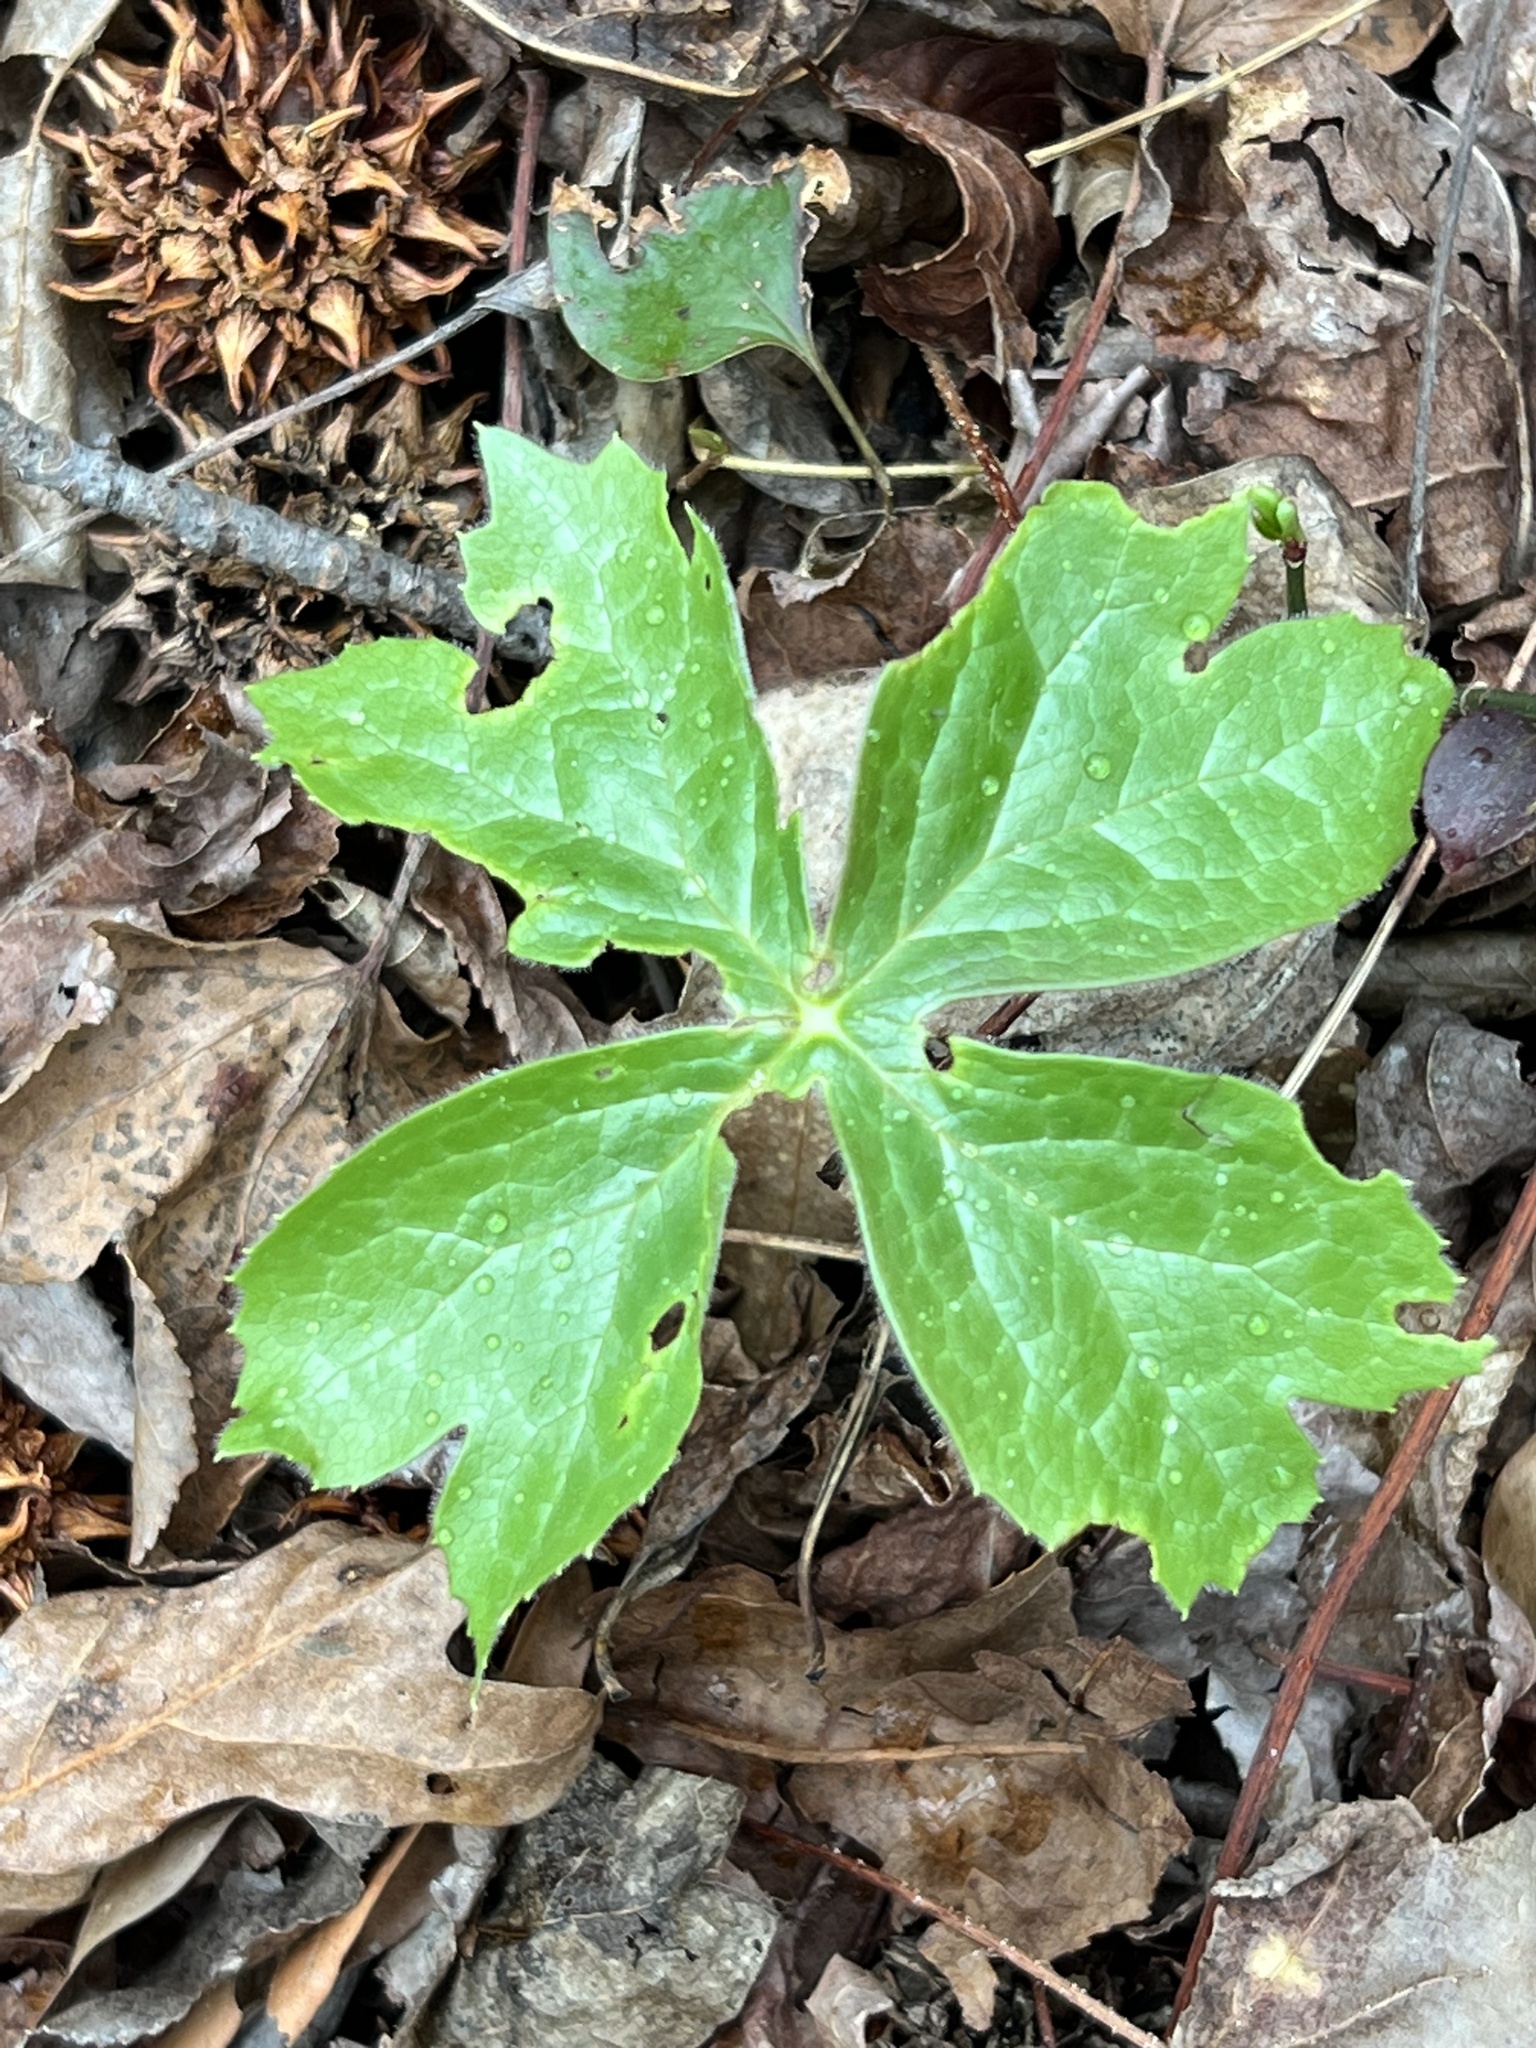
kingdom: Plantae
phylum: Tracheophyta
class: Magnoliopsida
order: Ranunculales
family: Berberidaceae
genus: Podophyllum
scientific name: Podophyllum peltatum
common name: Wild mandrake
